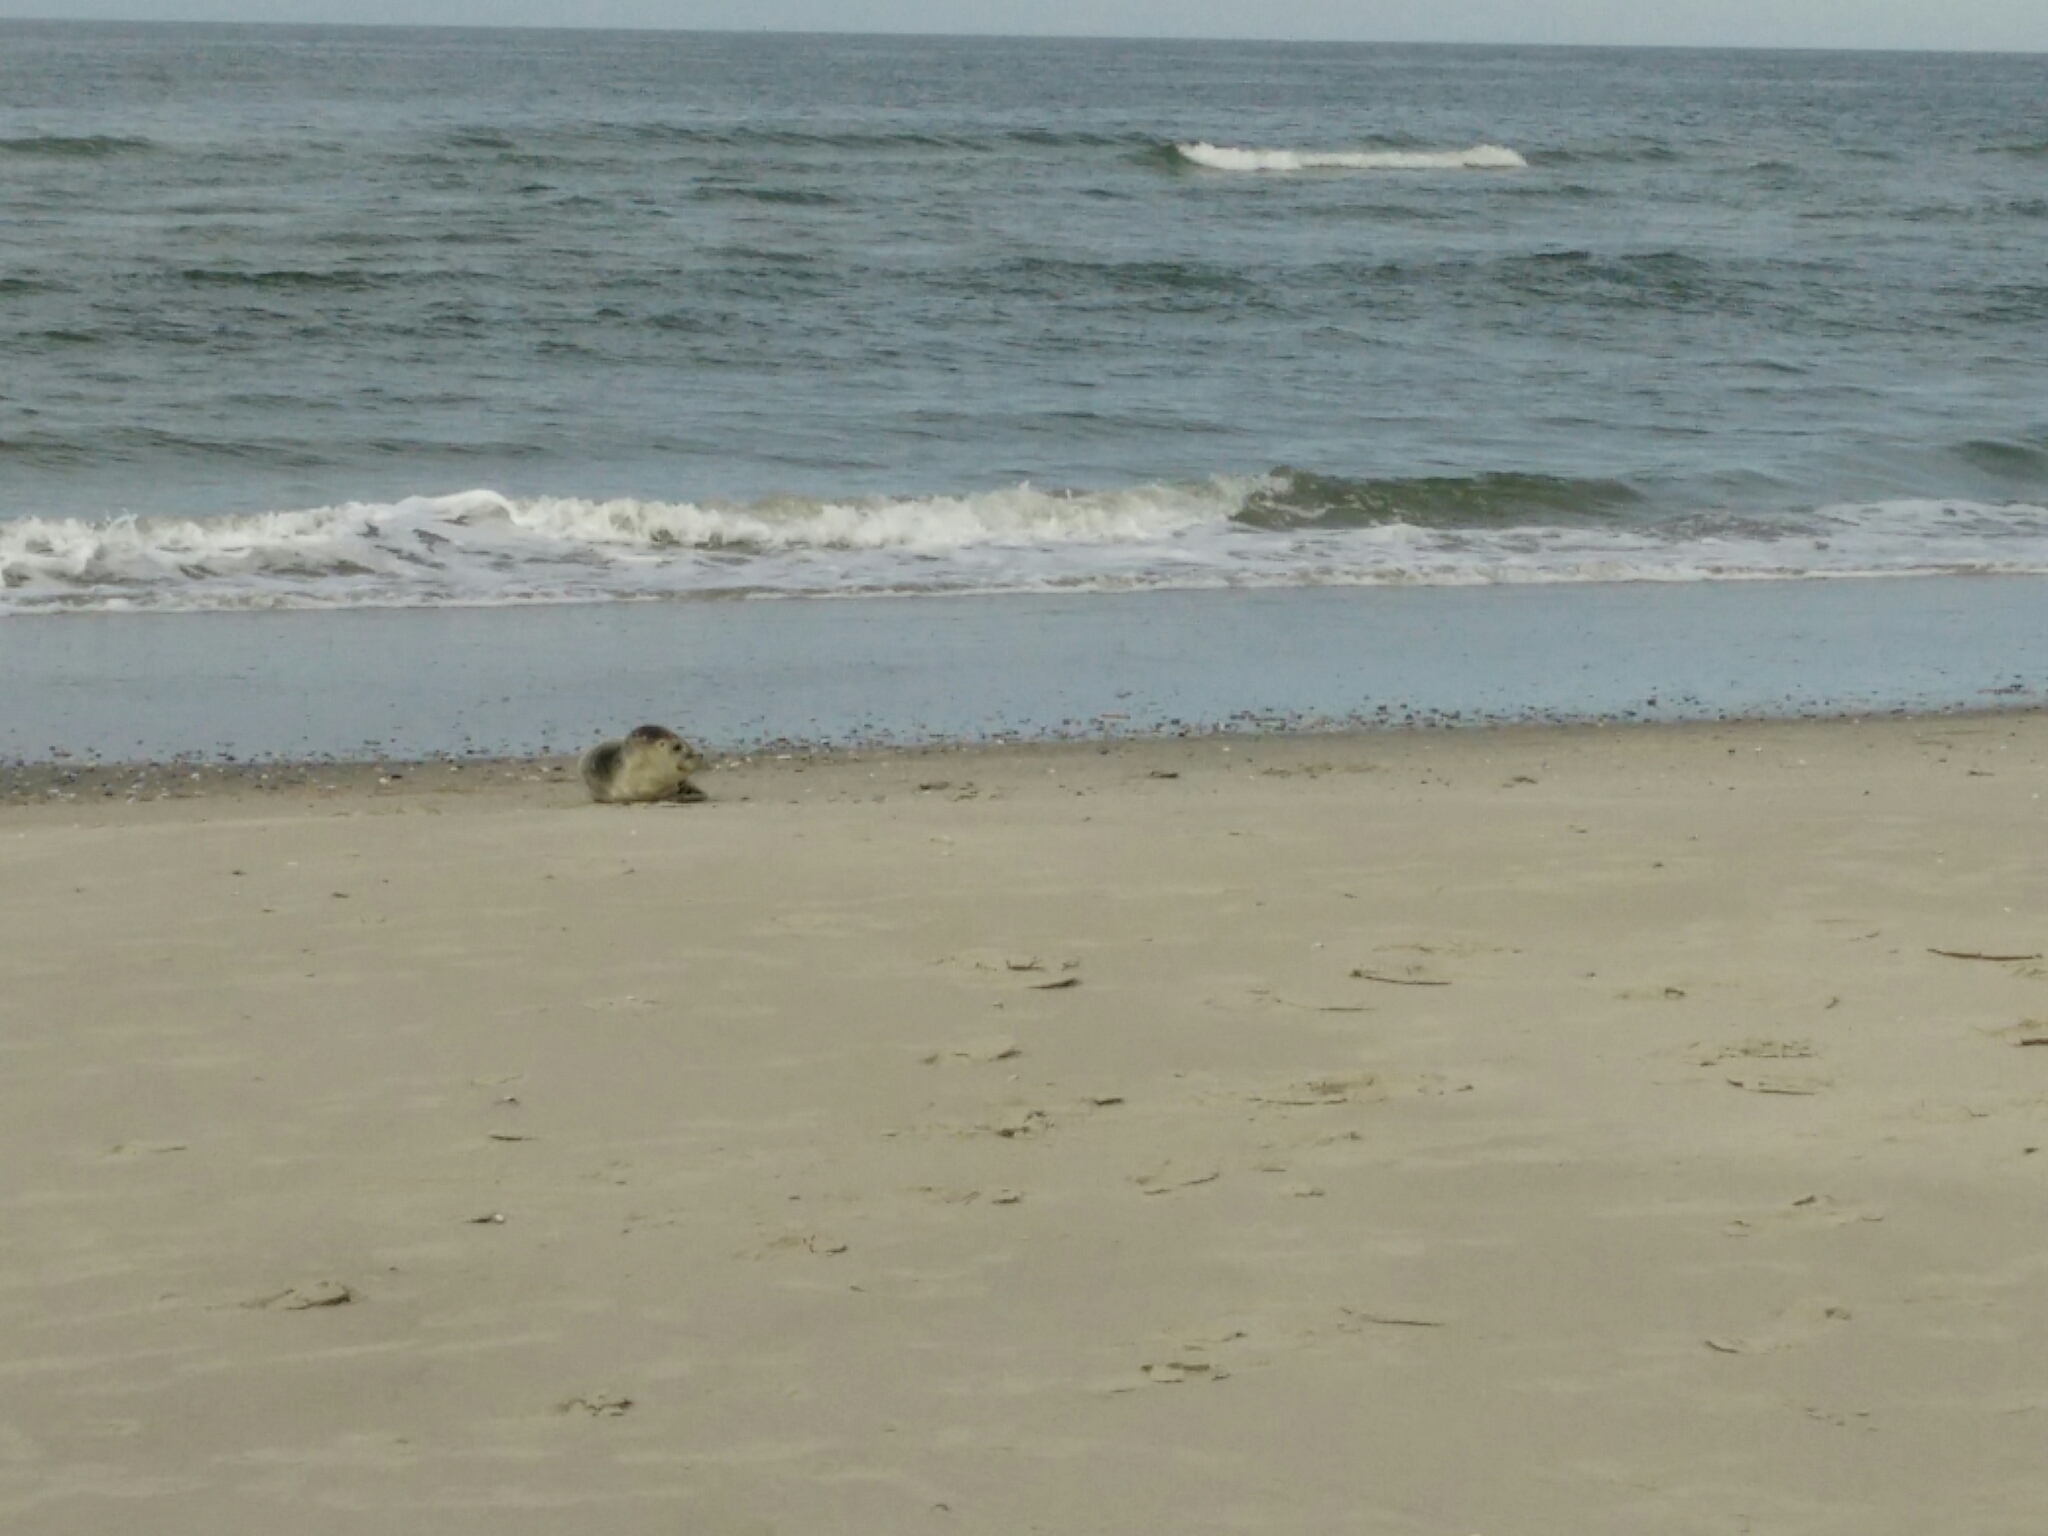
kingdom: Animalia
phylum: Chordata
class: Mammalia
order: Carnivora
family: Phocidae
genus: Phoca
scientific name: Phoca vitulina
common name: Harbor seal
